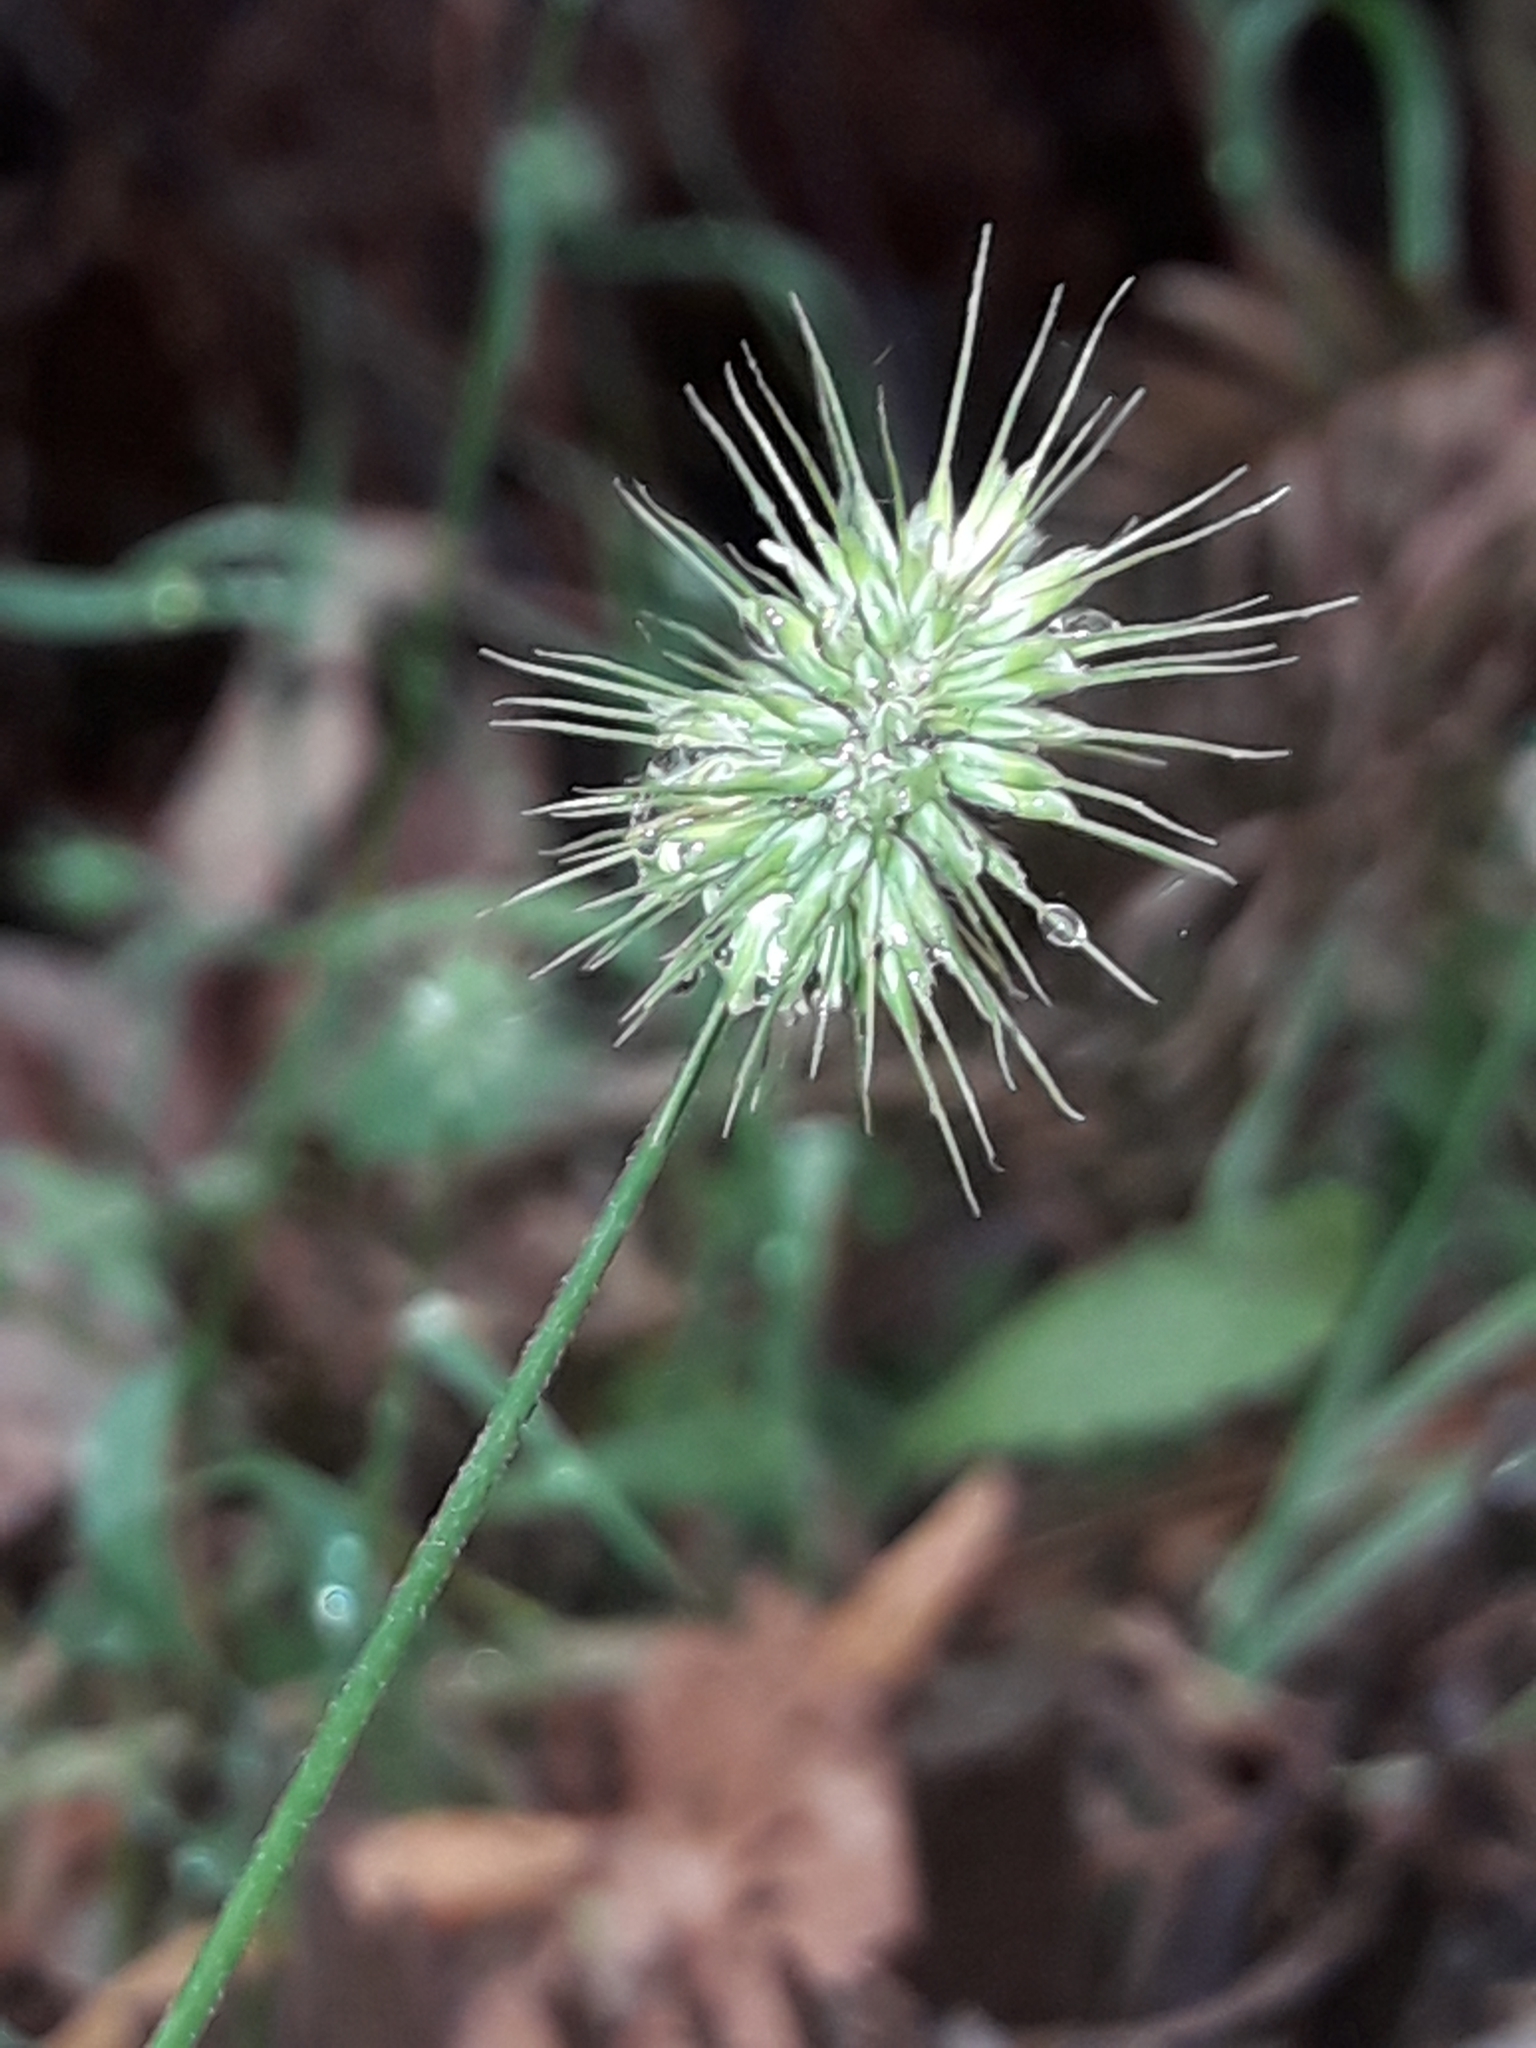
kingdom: Plantae
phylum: Tracheophyta
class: Liliopsida
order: Poales
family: Poaceae
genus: Echinopogon
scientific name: Echinopogon ovatus
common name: Hedgehog-grass
